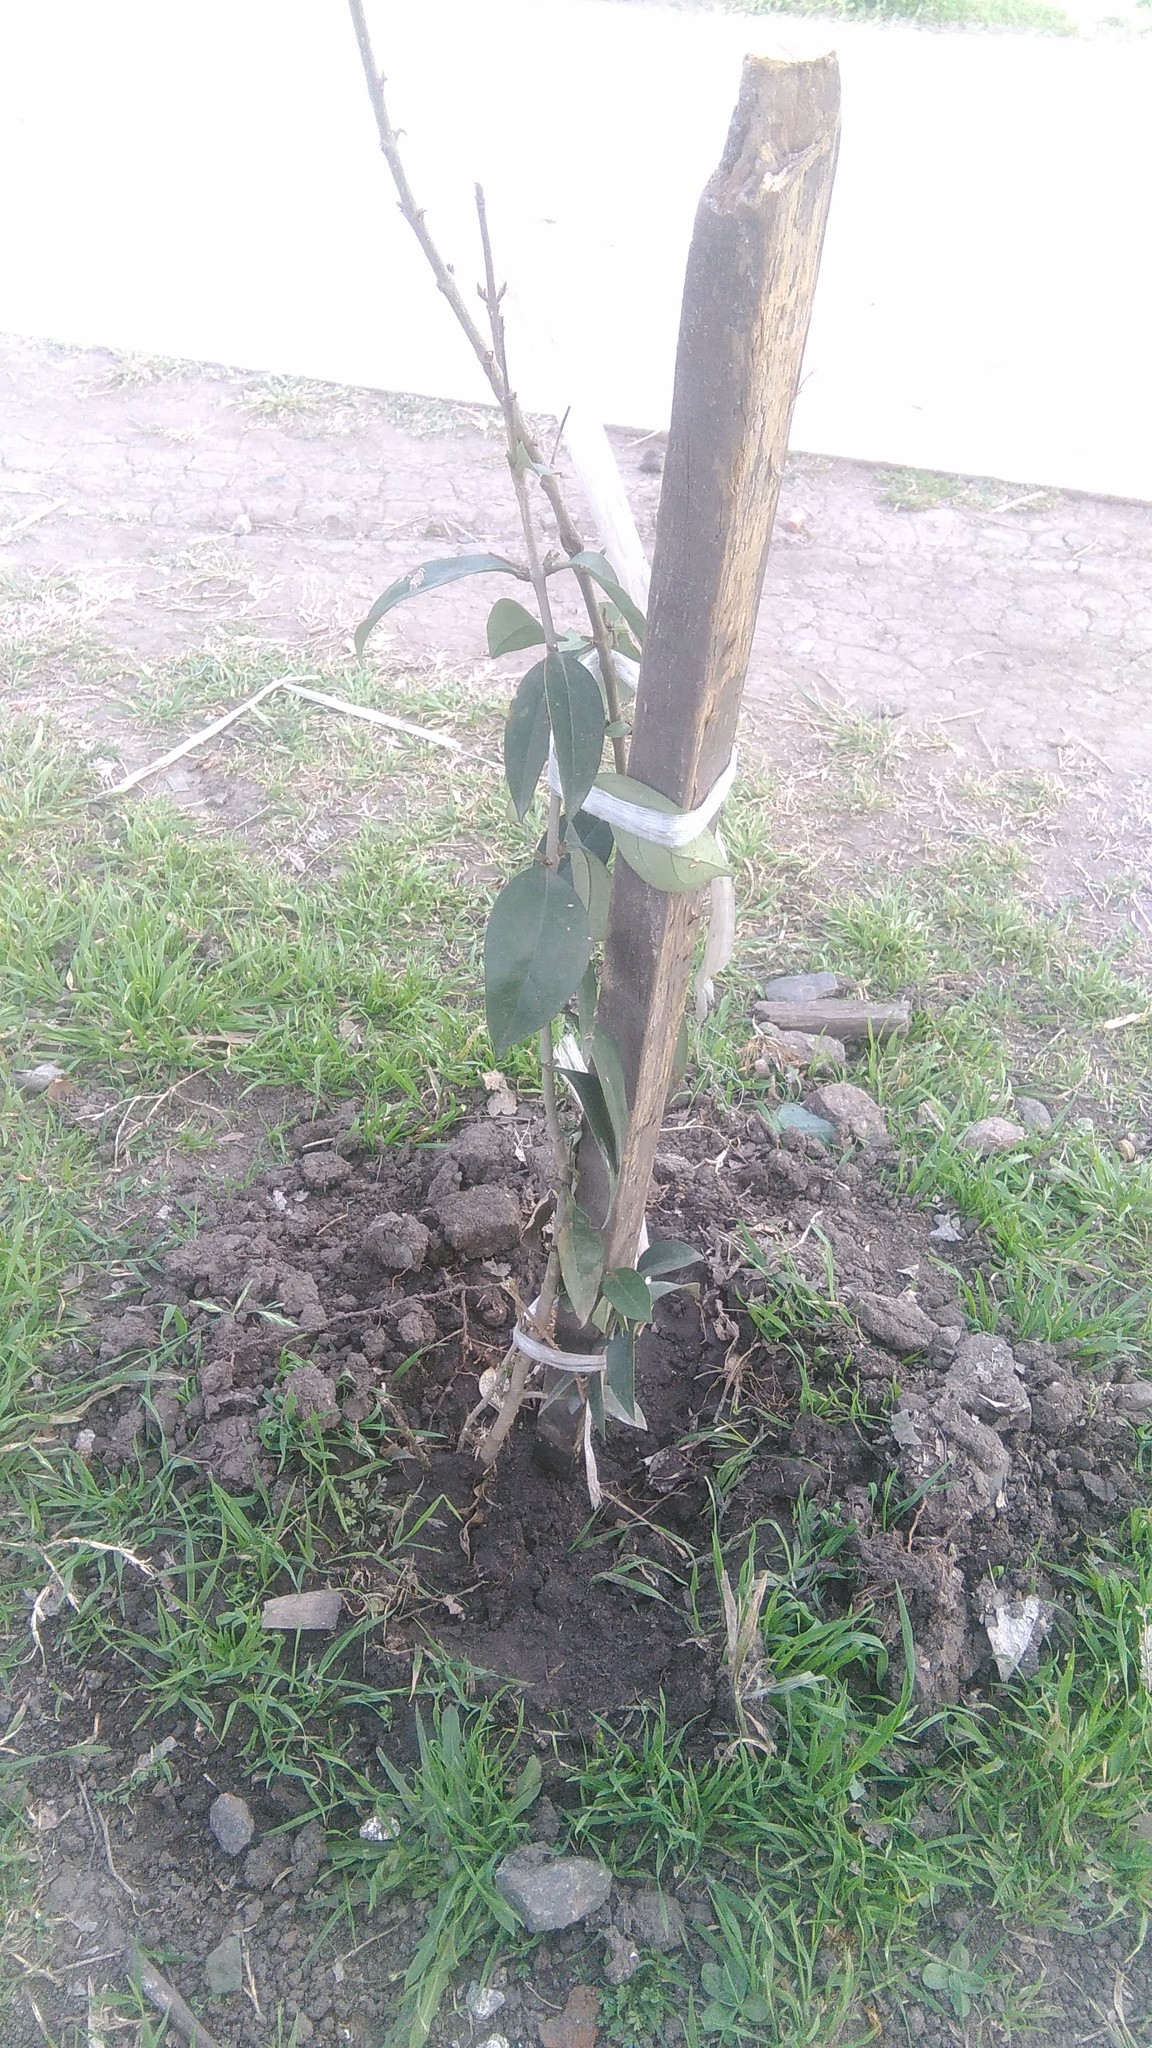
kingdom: Plantae
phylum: Tracheophyta
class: Magnoliopsida
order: Lamiales
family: Oleaceae
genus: Ligustrum
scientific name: Ligustrum lucidum
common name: Glossy privet
